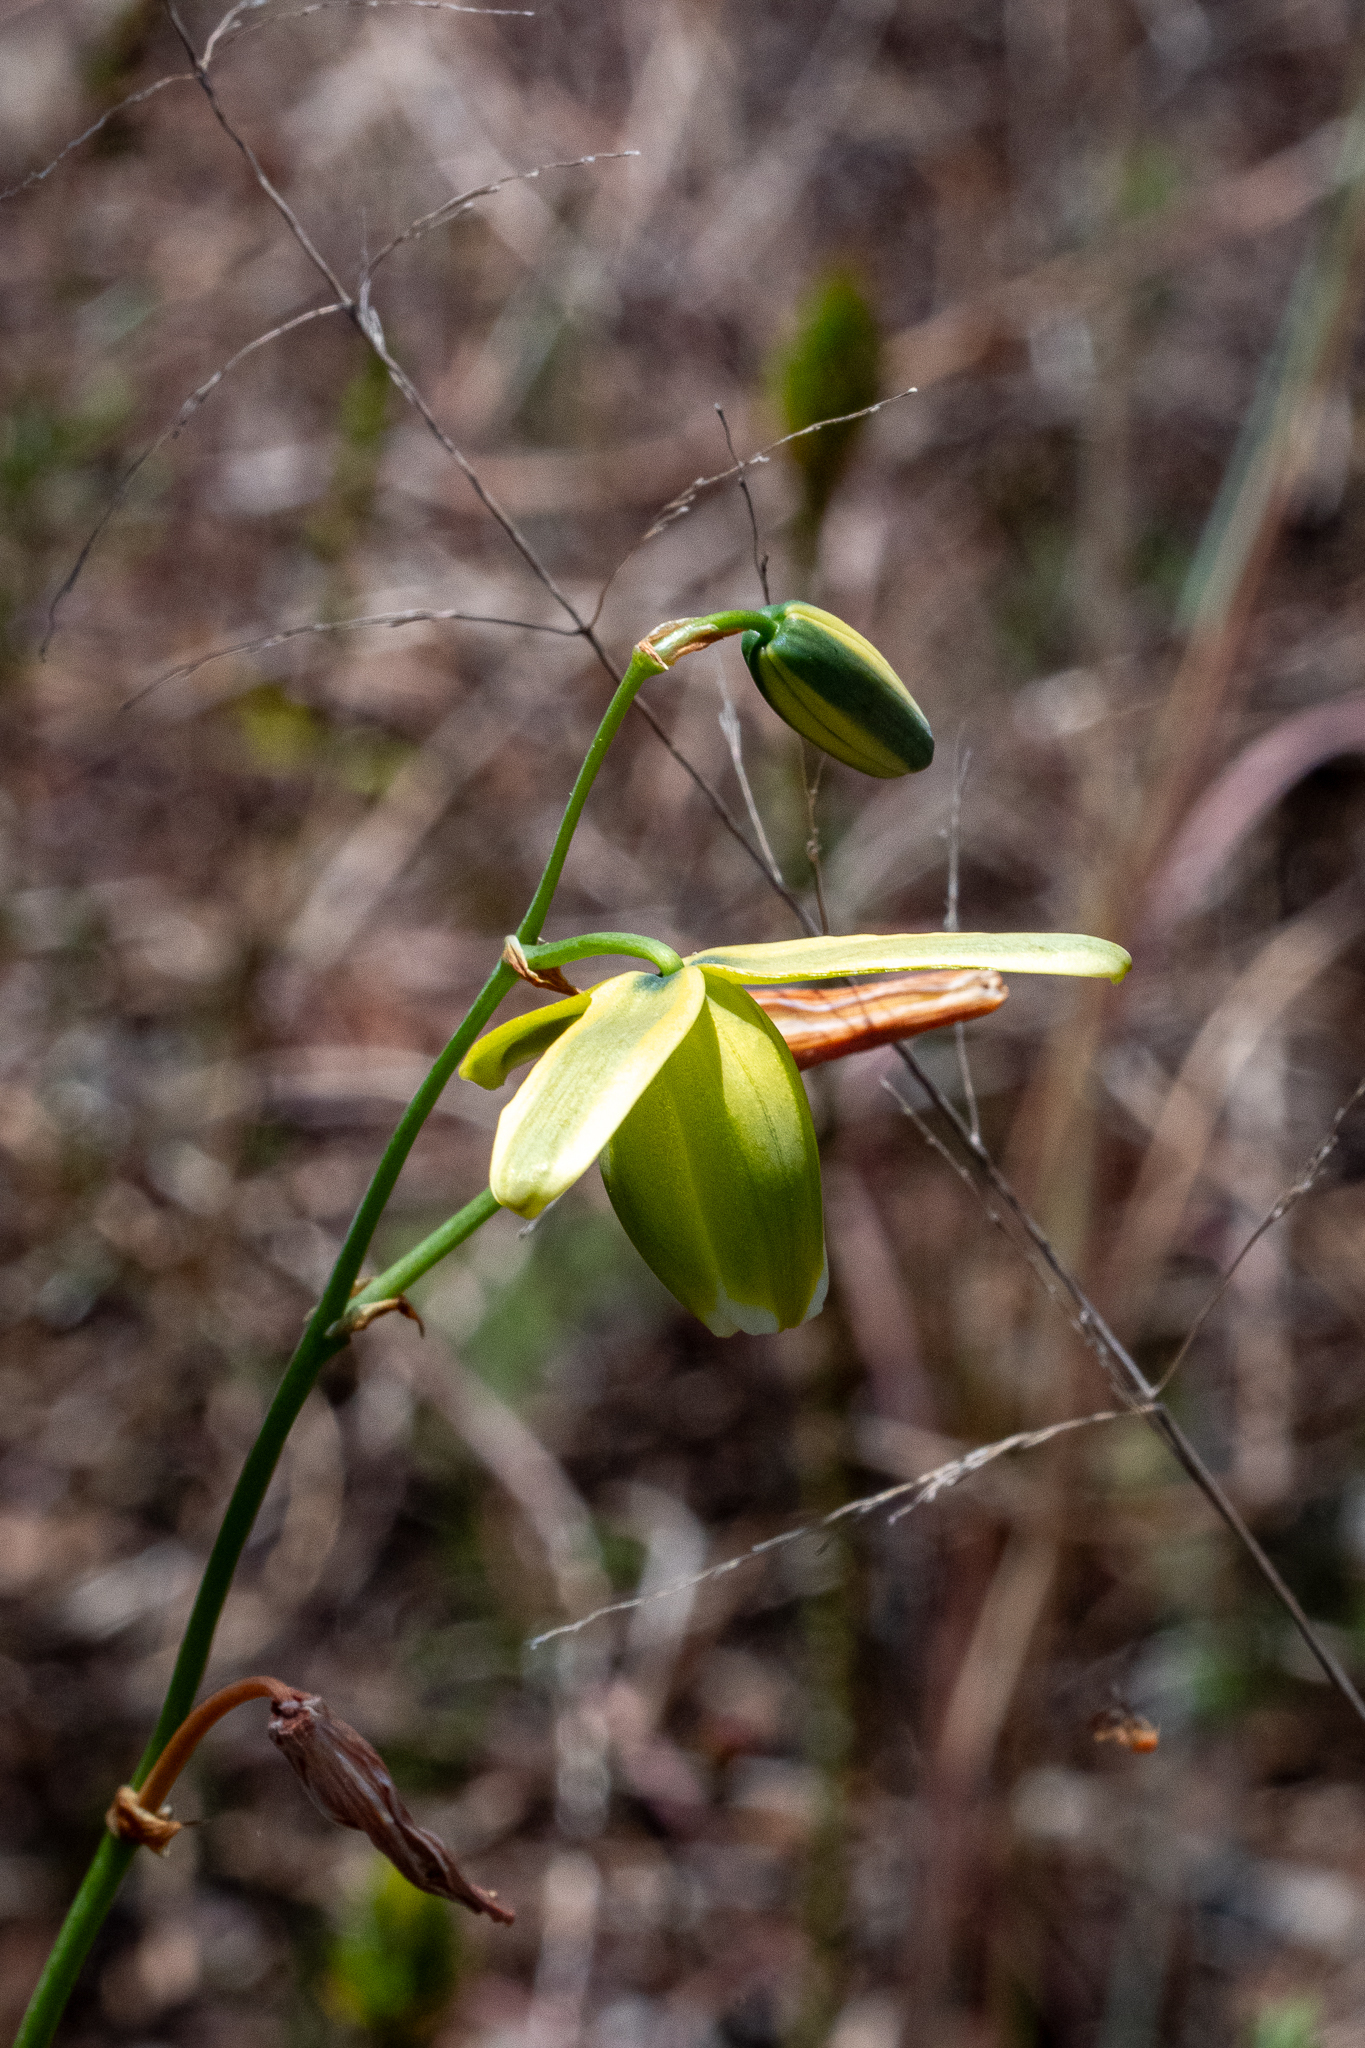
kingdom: Plantae
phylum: Tracheophyta
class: Liliopsida
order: Asparagales
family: Asparagaceae
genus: Albuca
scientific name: Albuca cooperi
